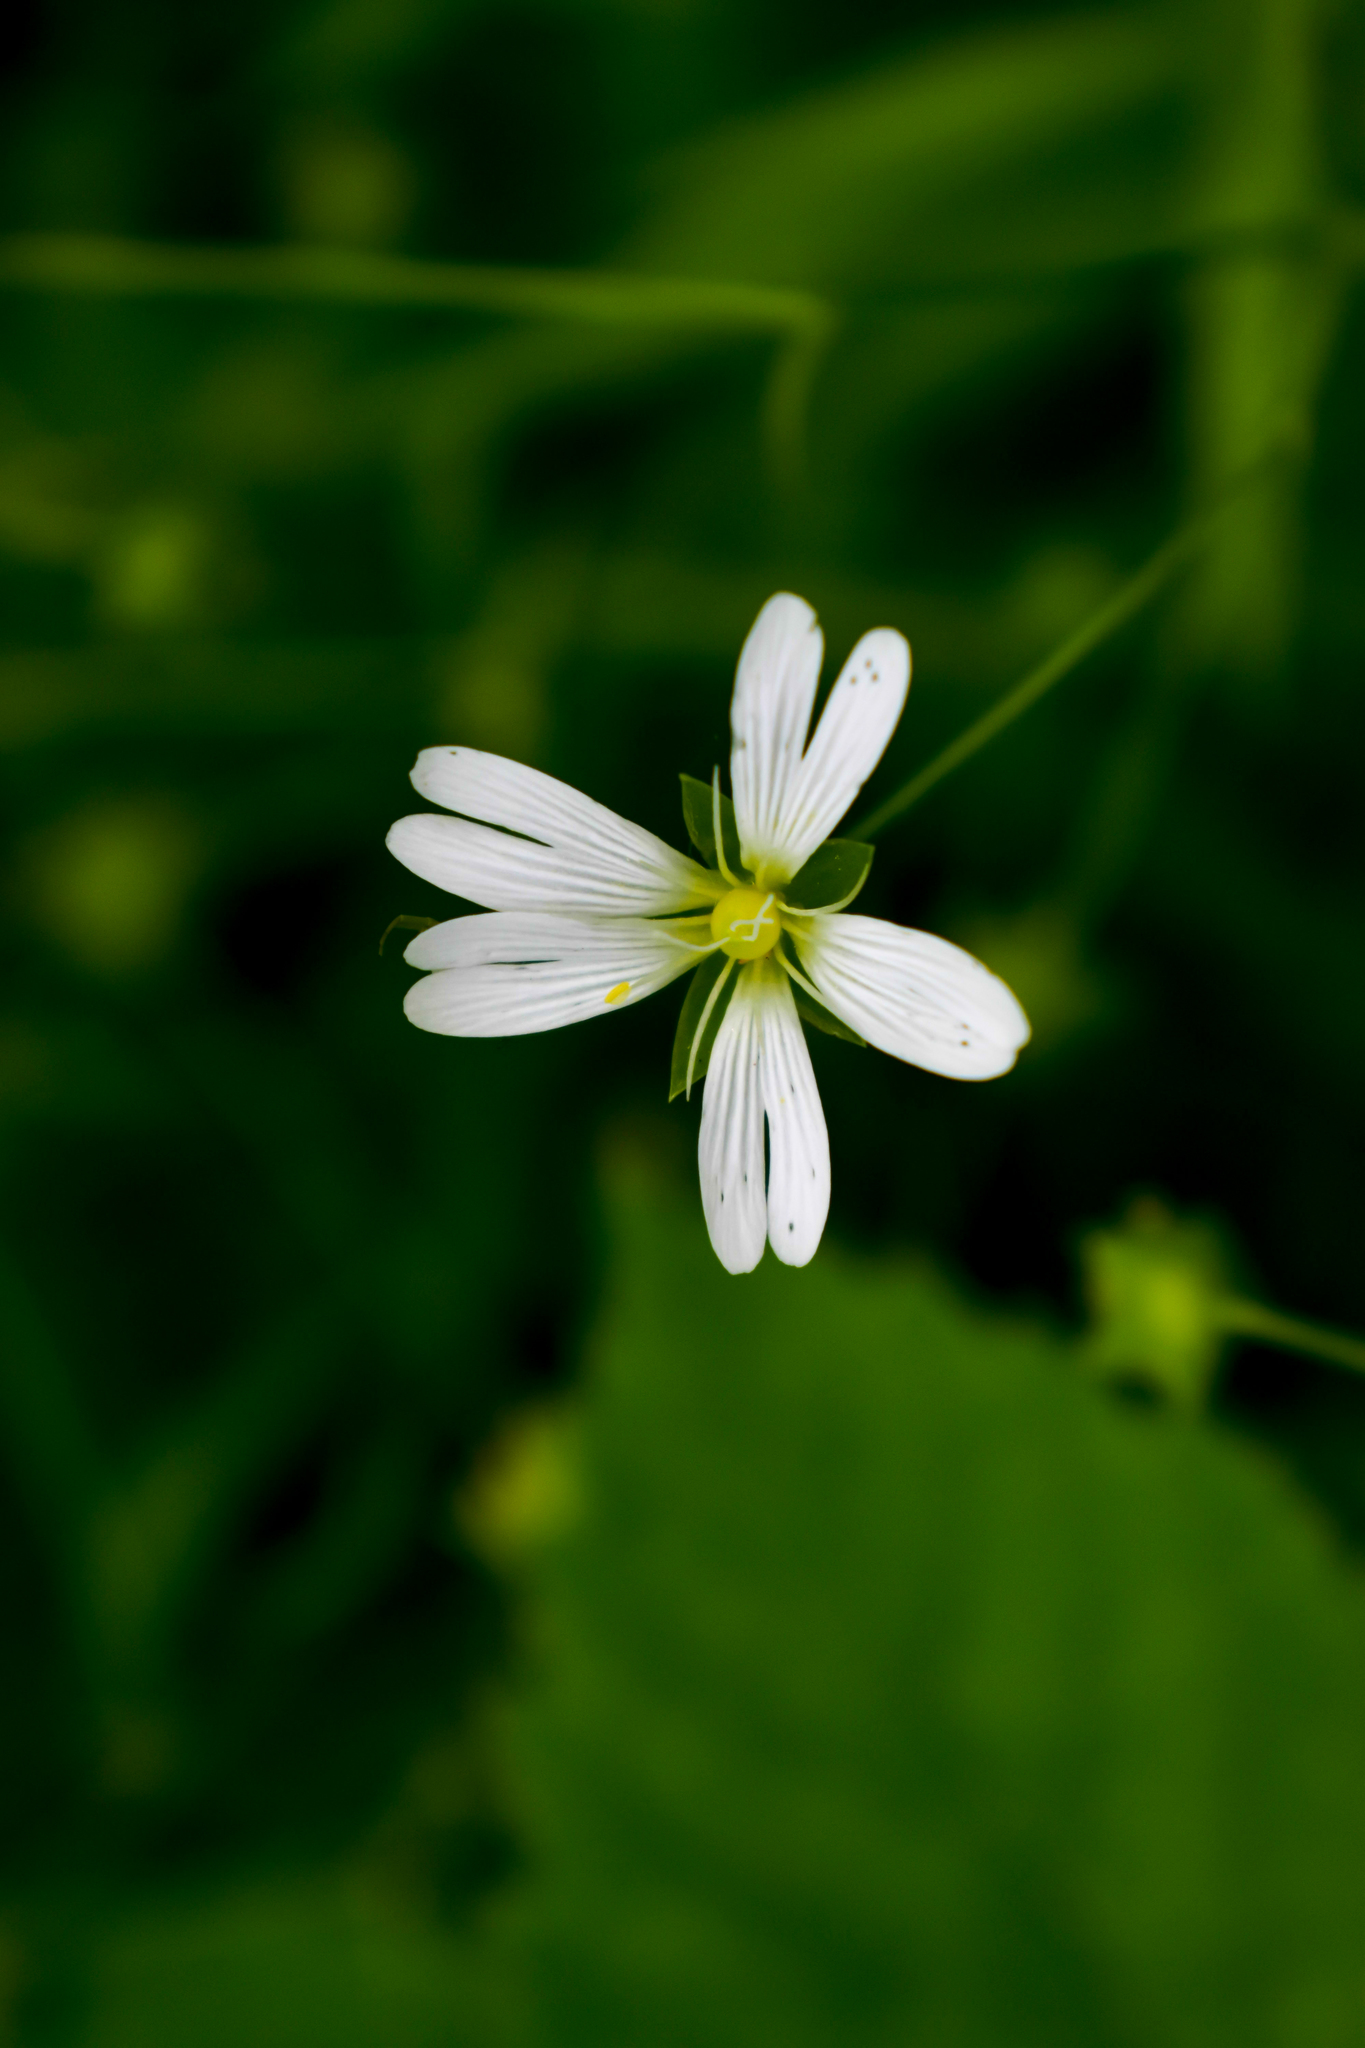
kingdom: Plantae
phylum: Tracheophyta
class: Magnoliopsida
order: Caryophyllales
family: Caryophyllaceae
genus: Rabelera
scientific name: Rabelera holostea
